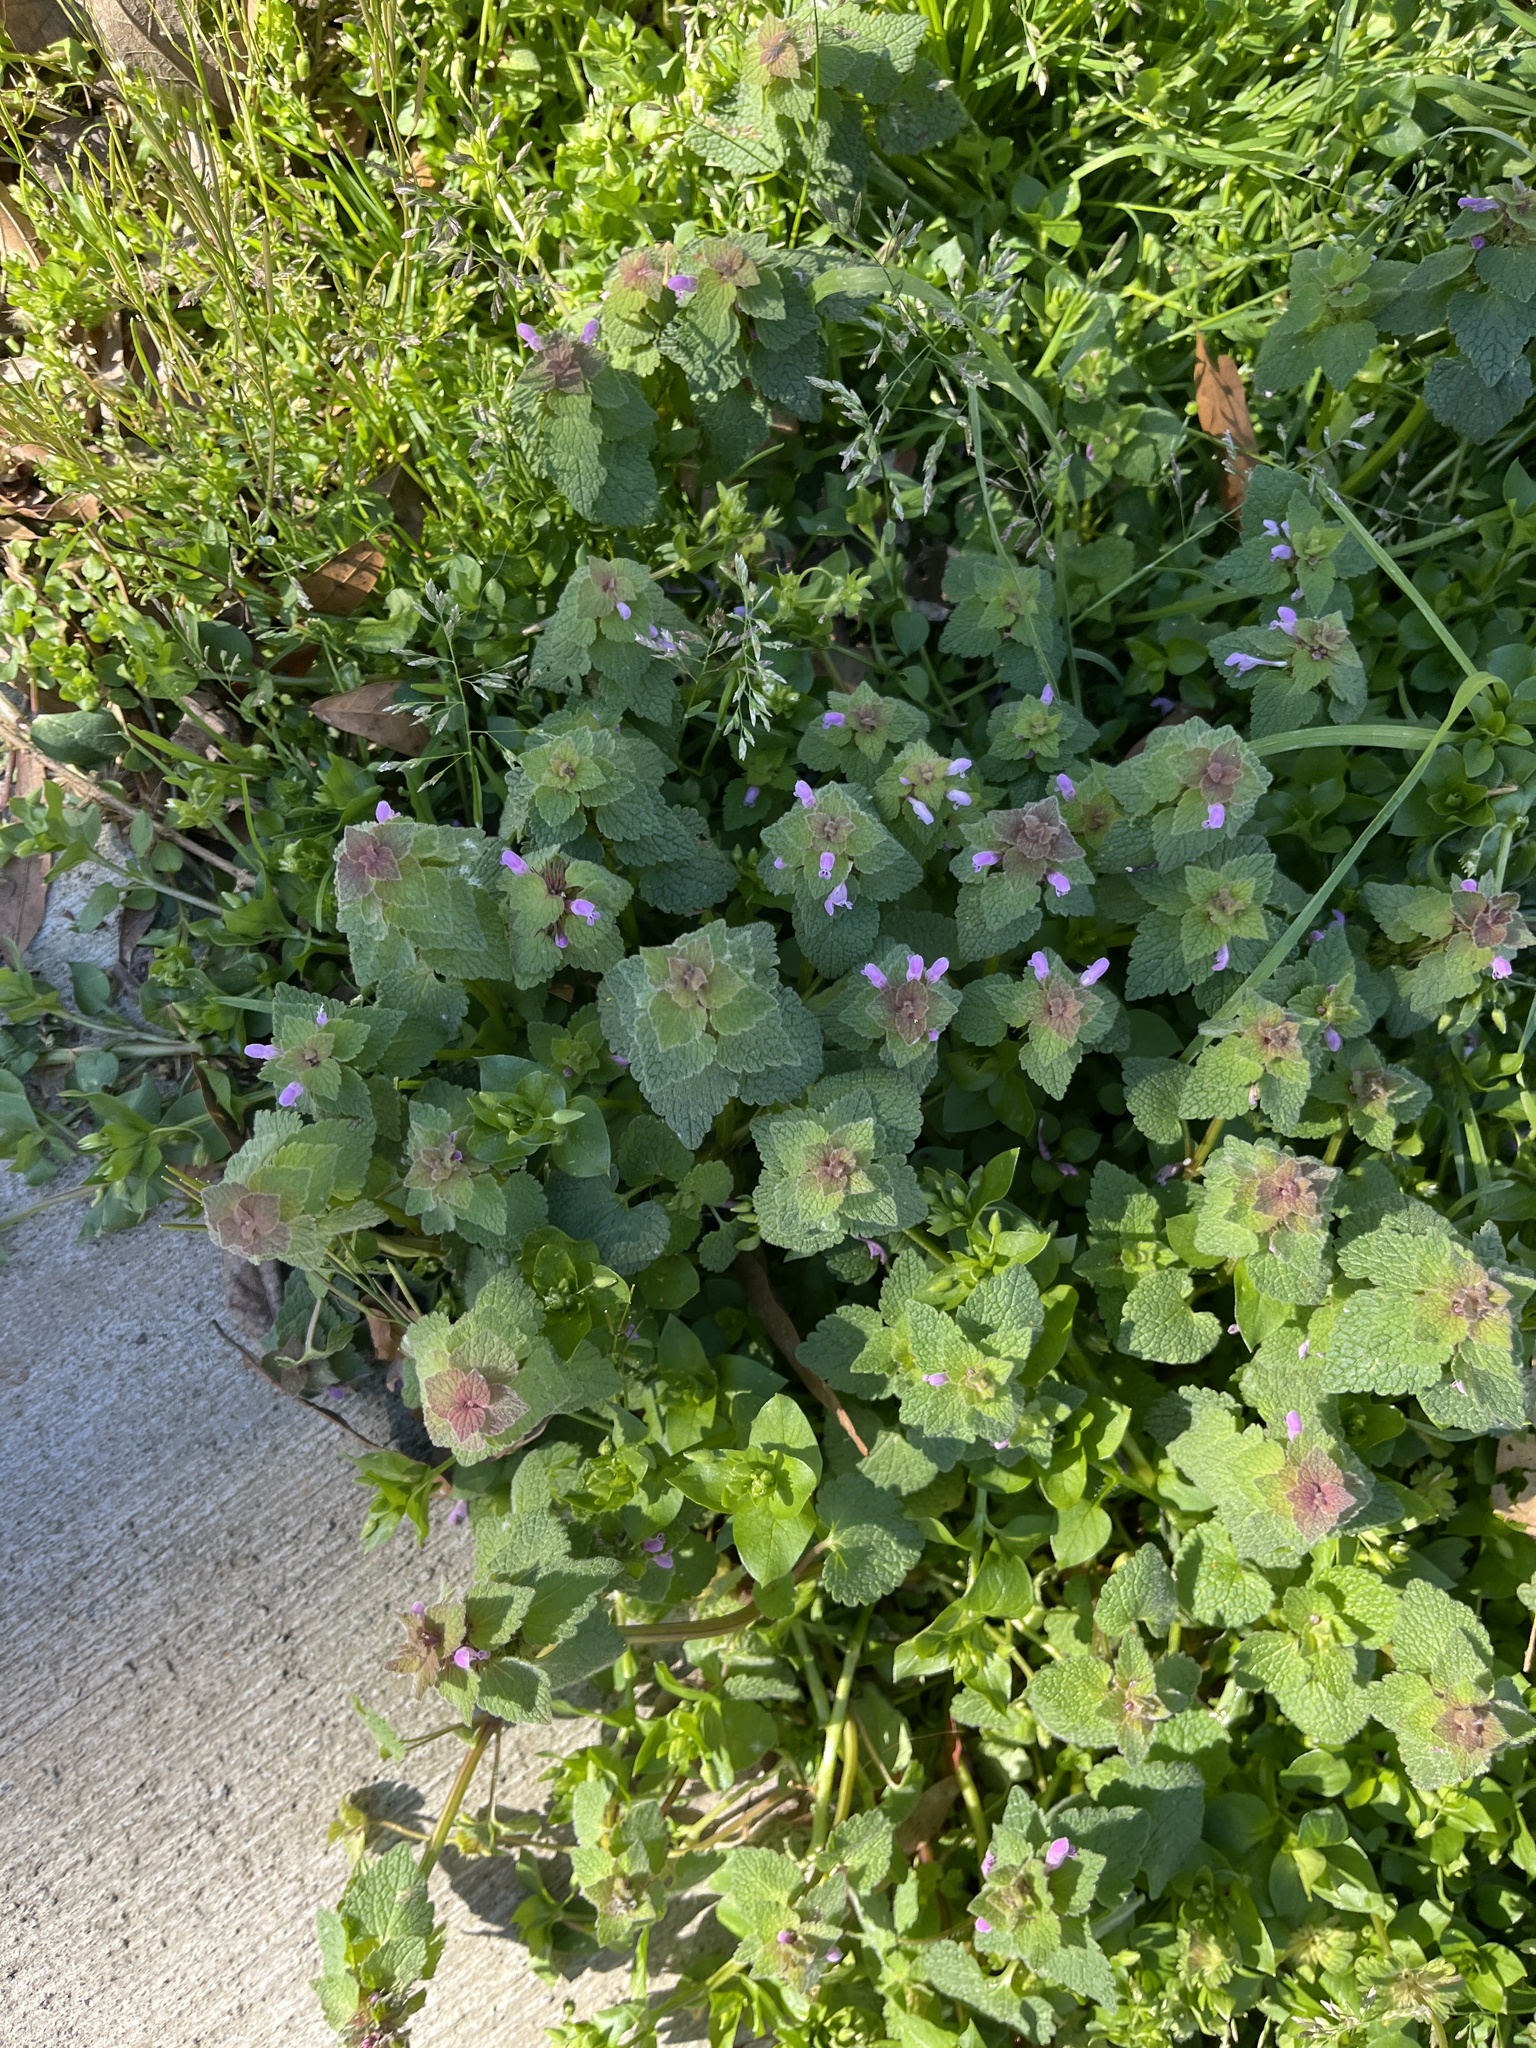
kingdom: Plantae
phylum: Tracheophyta
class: Magnoliopsida
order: Lamiales
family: Lamiaceae
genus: Lamium
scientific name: Lamium purpureum
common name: Red dead-nettle
